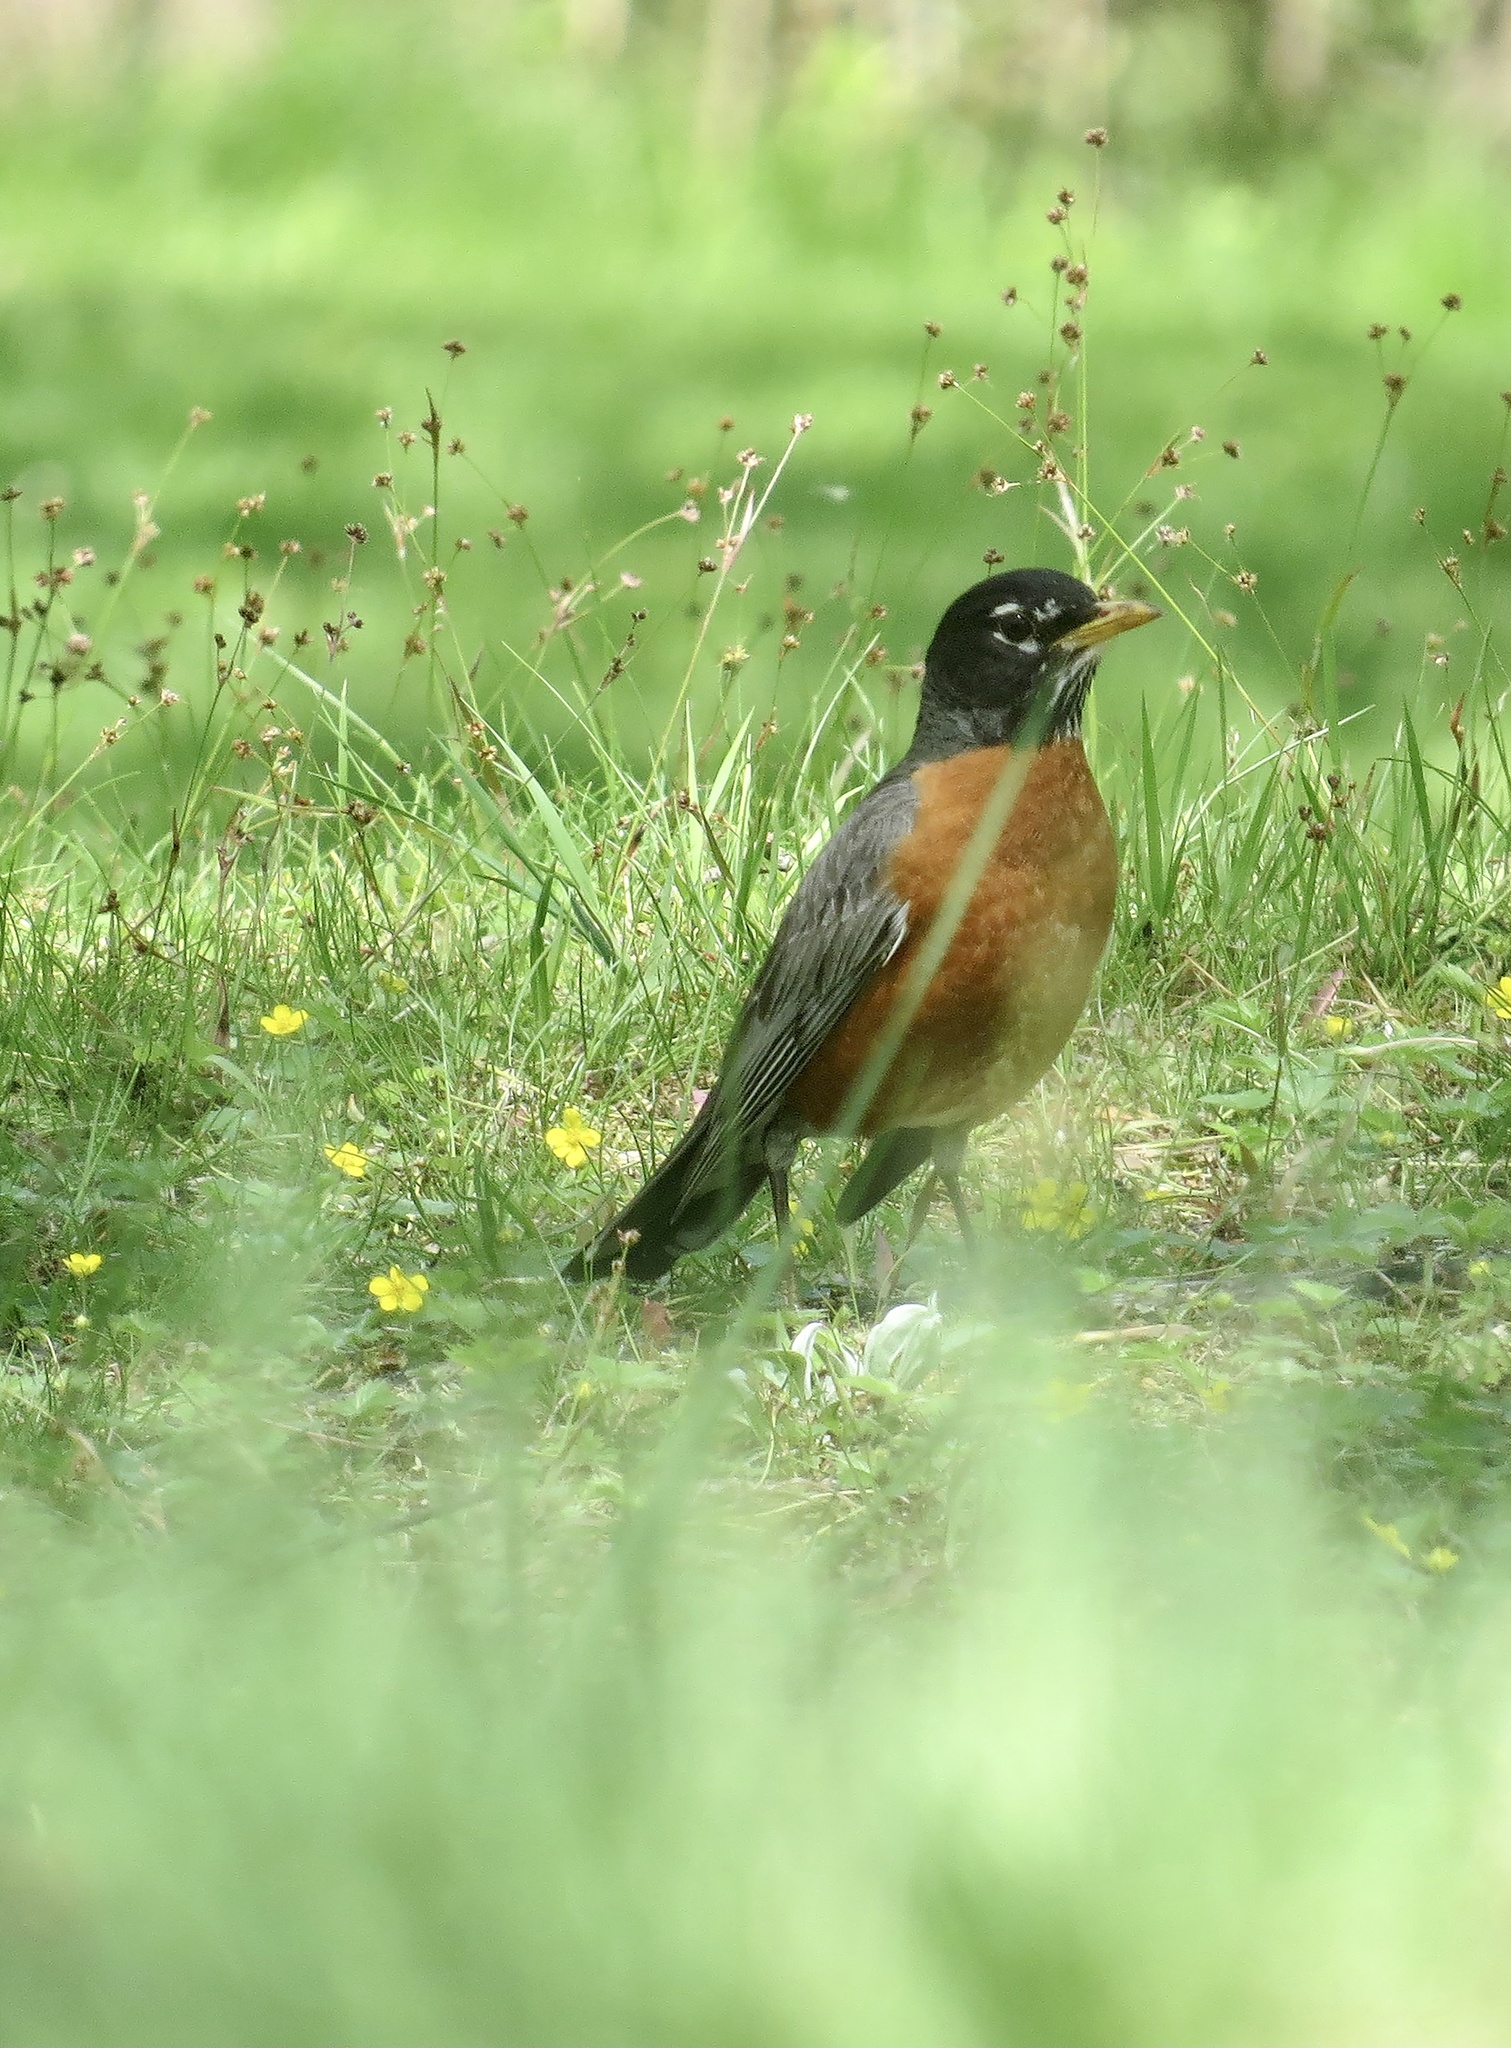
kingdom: Animalia
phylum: Chordata
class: Aves
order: Passeriformes
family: Turdidae
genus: Turdus
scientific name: Turdus migratorius
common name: American robin
